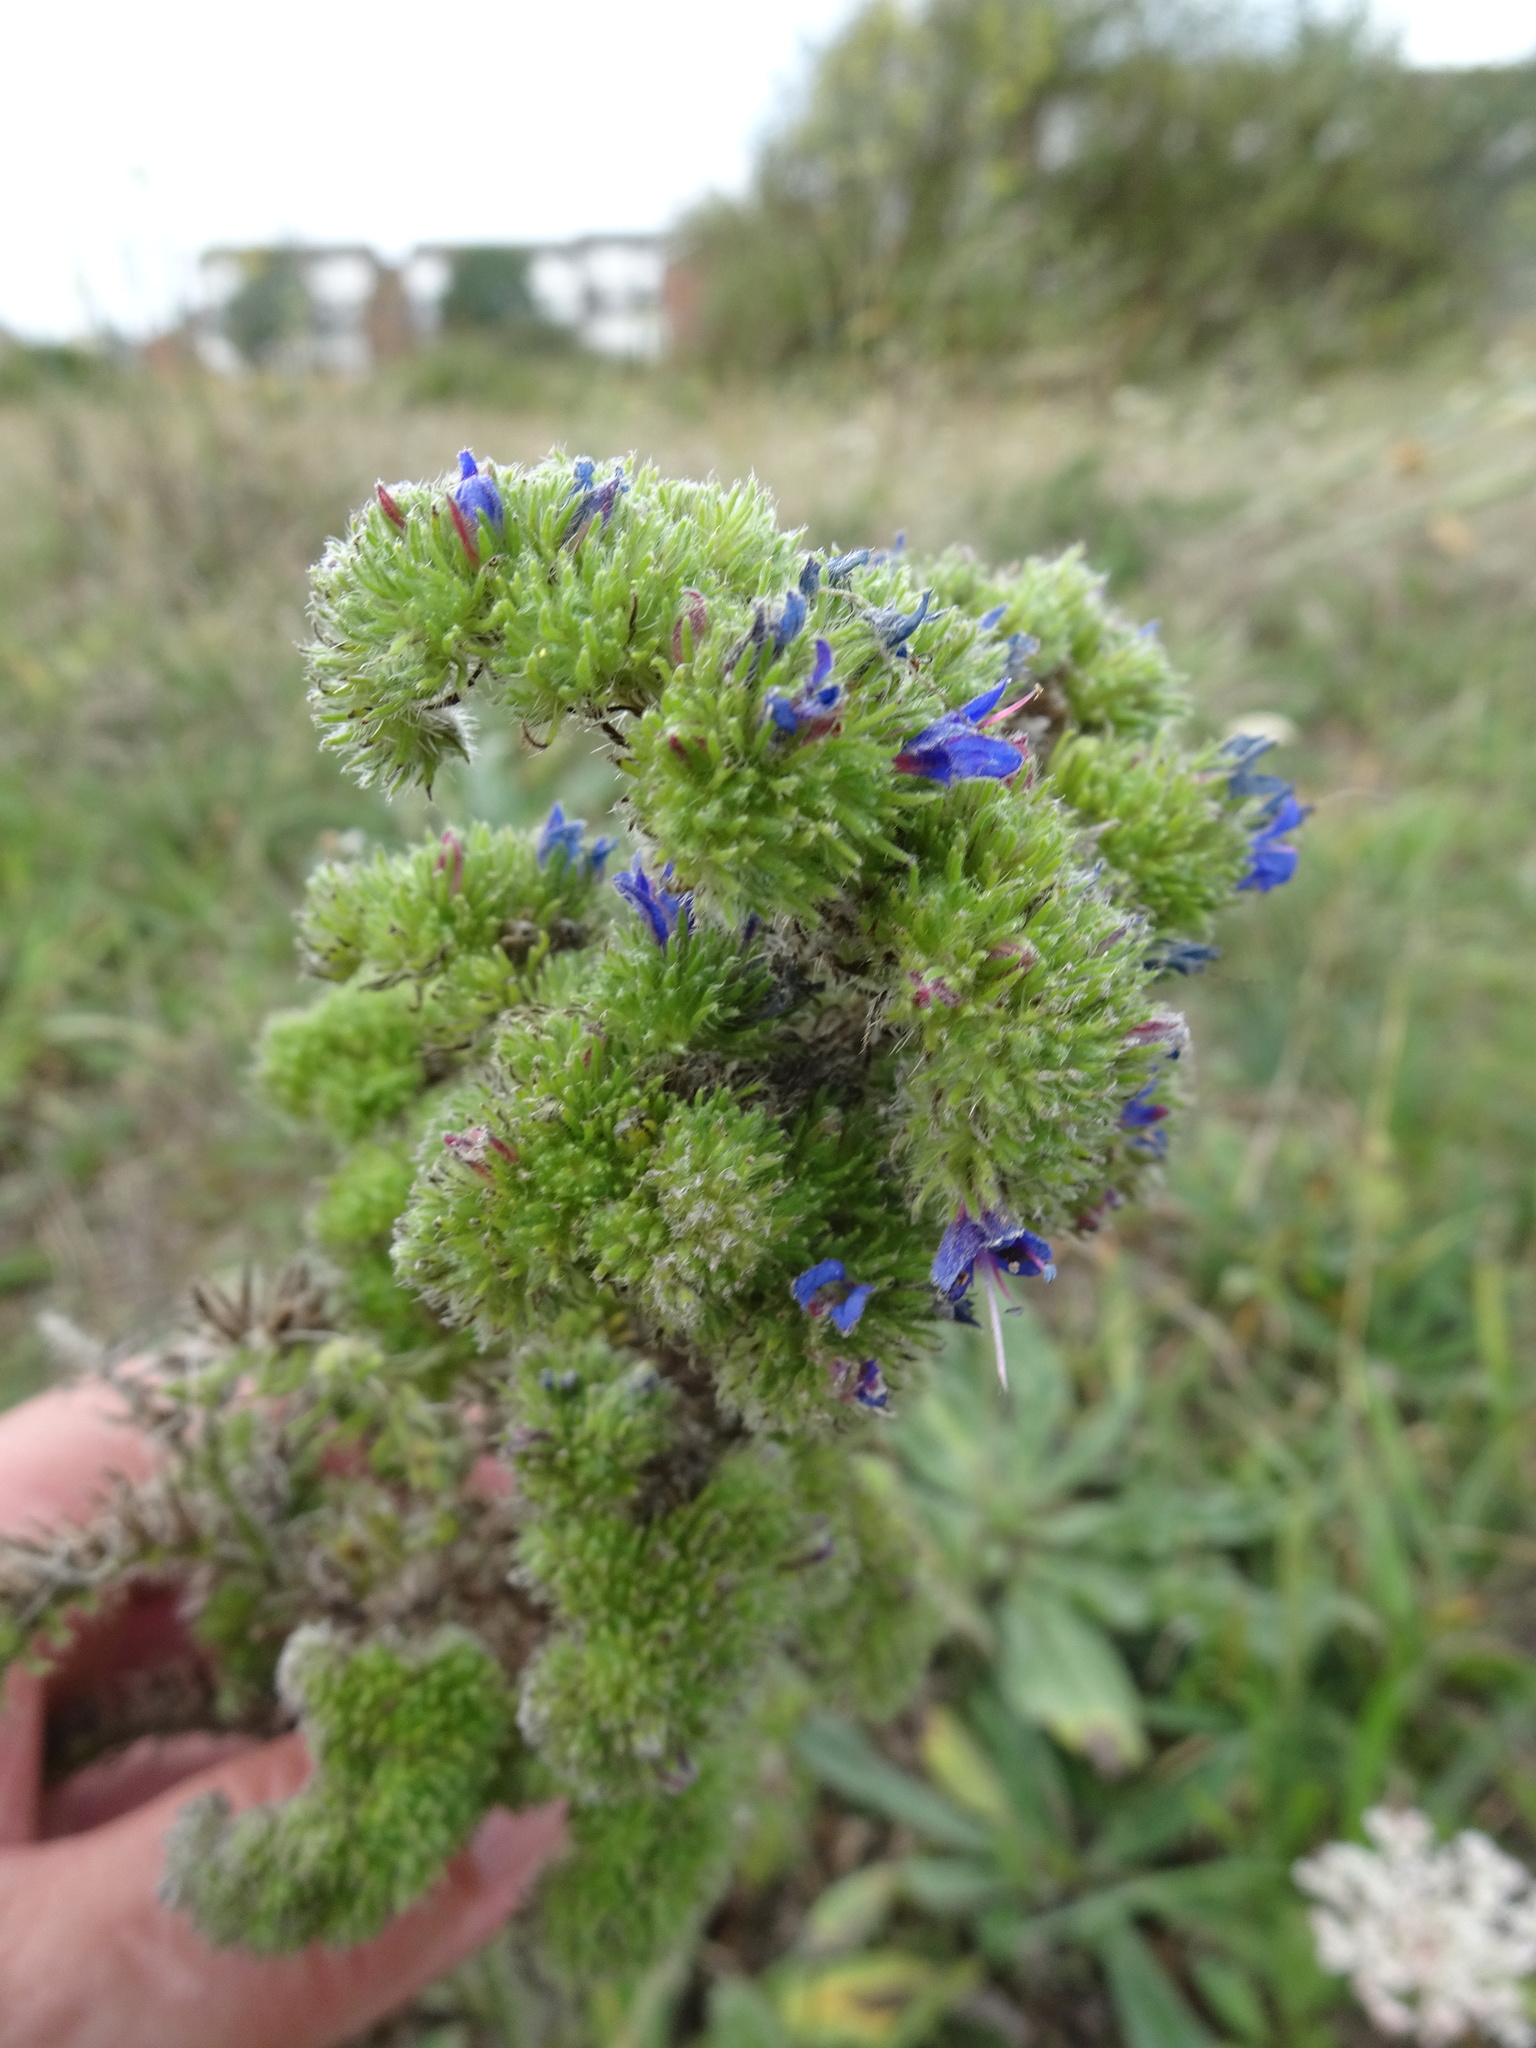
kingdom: Plantae
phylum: Tracheophyta
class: Magnoliopsida
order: Boraginales
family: Boraginaceae
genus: Echium
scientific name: Echium vulgare
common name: Common viper's bugloss
